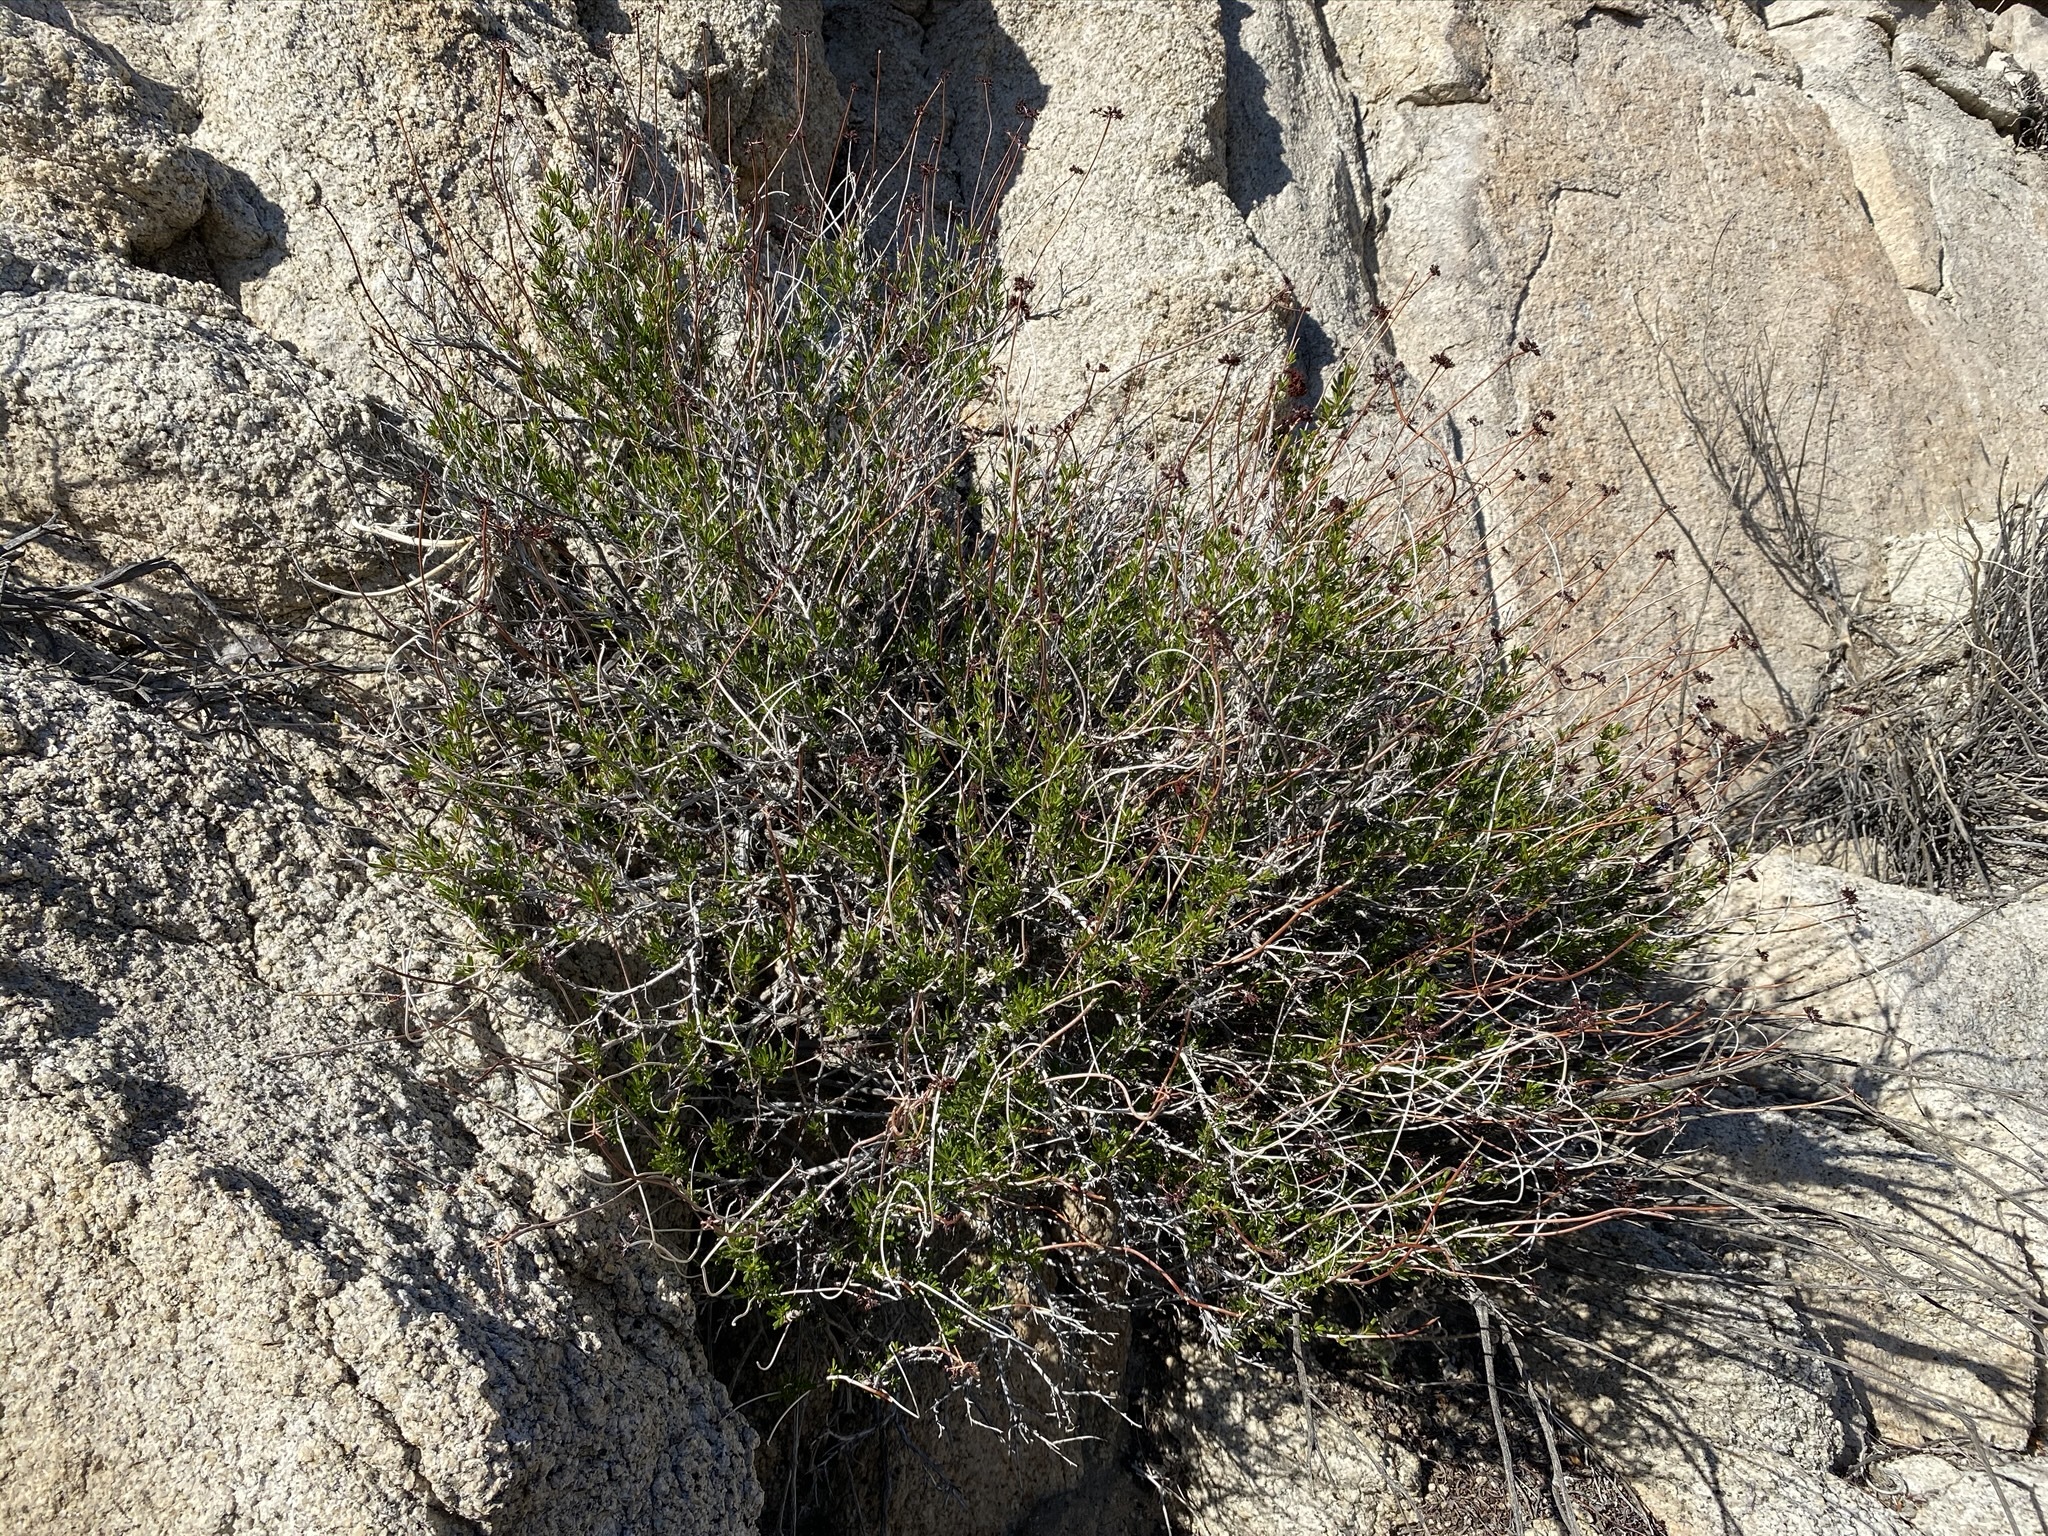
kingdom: Plantae
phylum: Tracheophyta
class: Magnoliopsida
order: Caryophyllales
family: Polygonaceae
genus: Eriogonum
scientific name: Eriogonum fasciculatum
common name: California wild buckwheat
